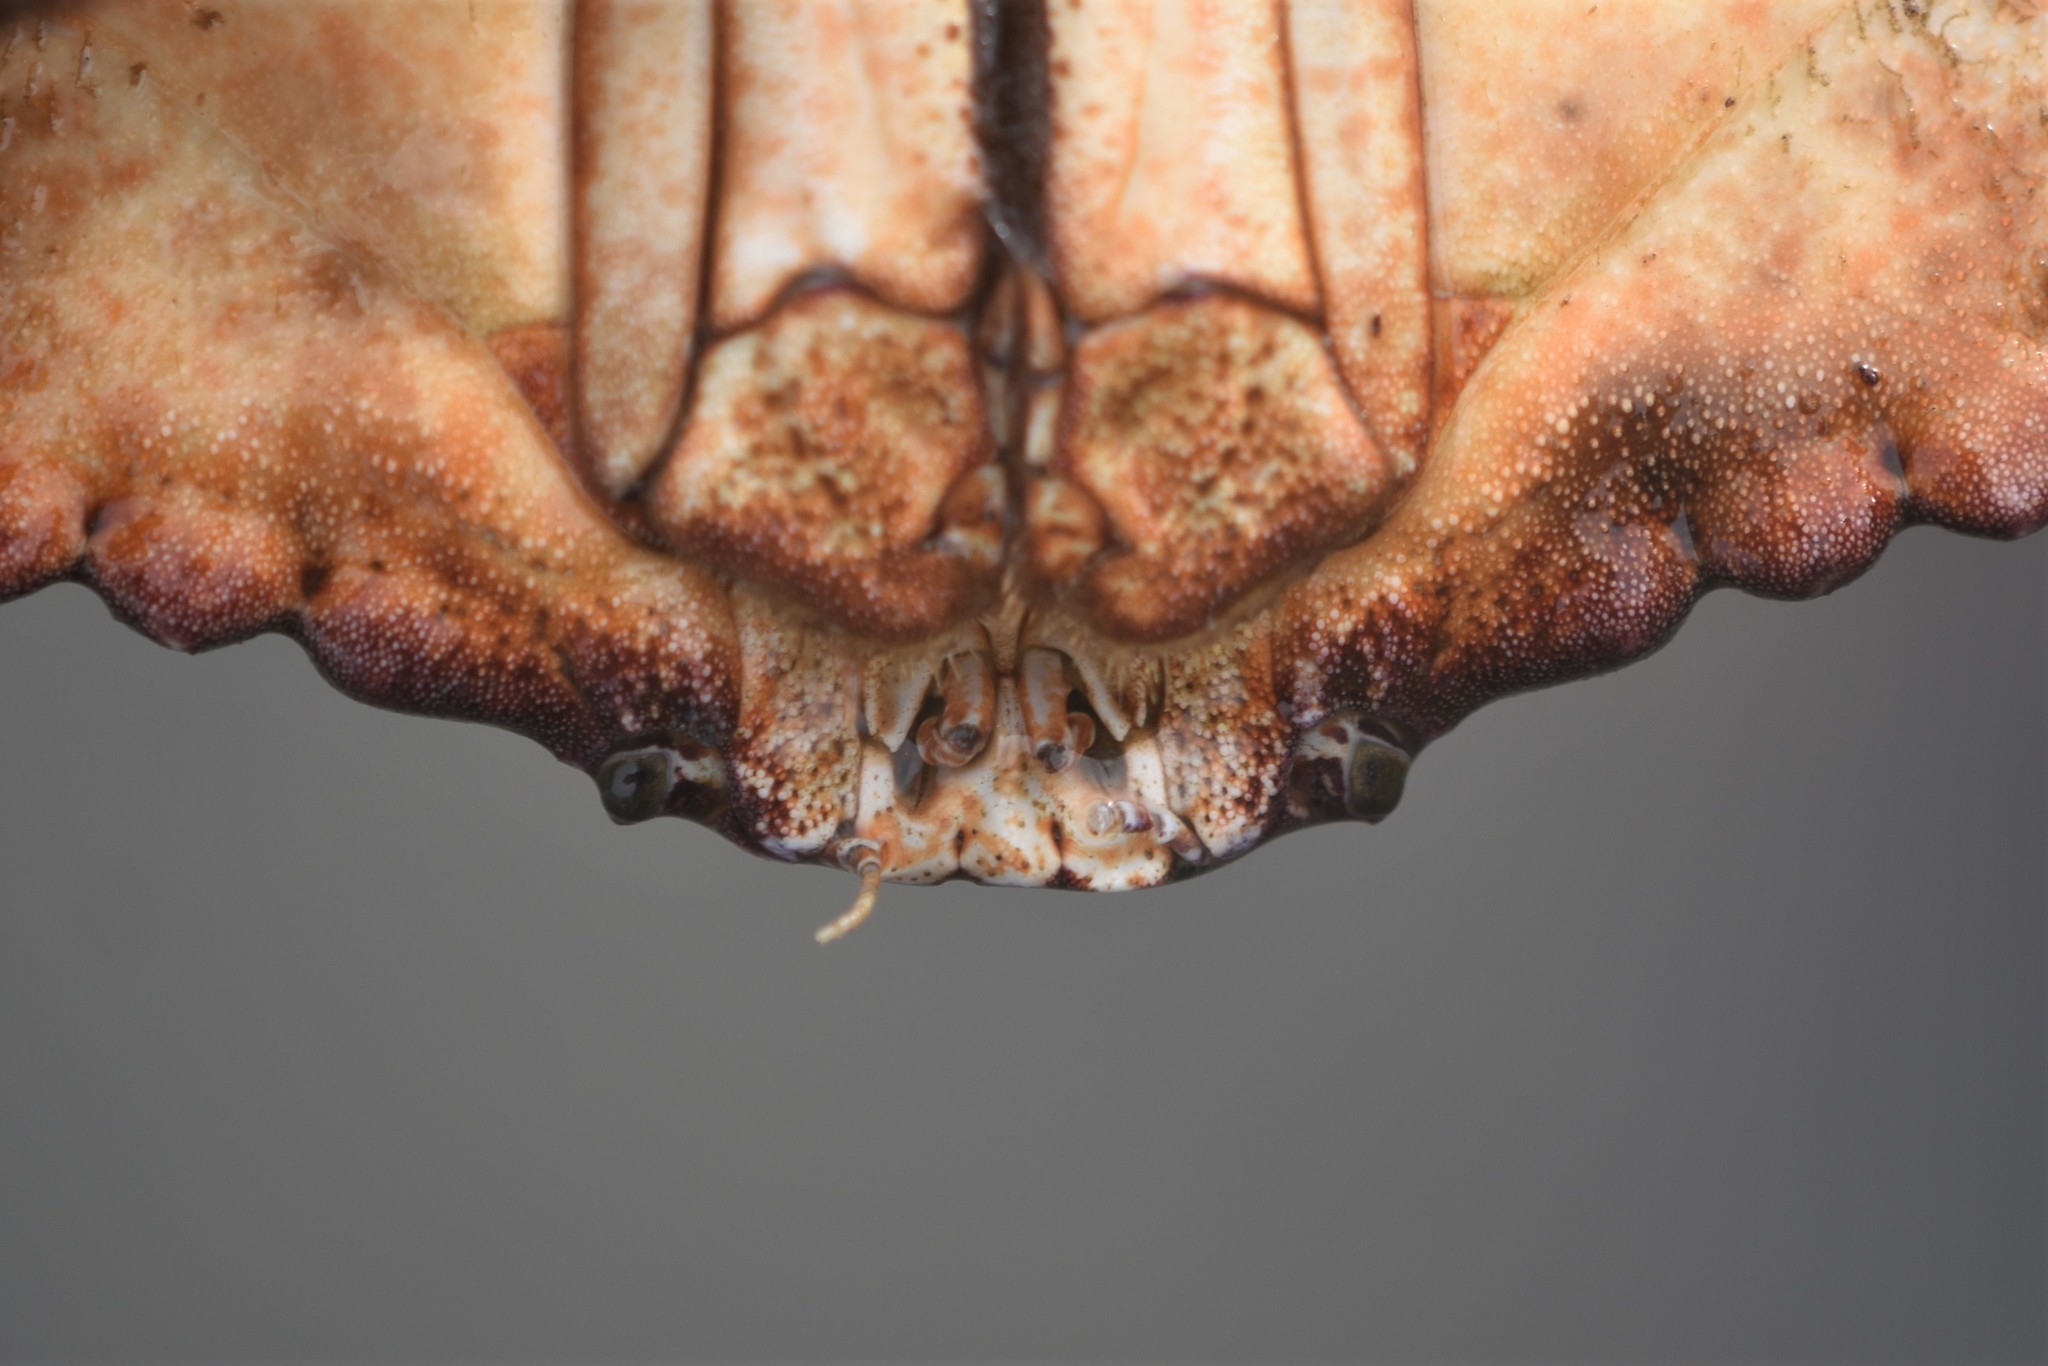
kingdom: Animalia
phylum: Arthropoda
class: Malacostraca
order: Decapoda
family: Cancridae
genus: Cancer
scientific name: Cancer productus
